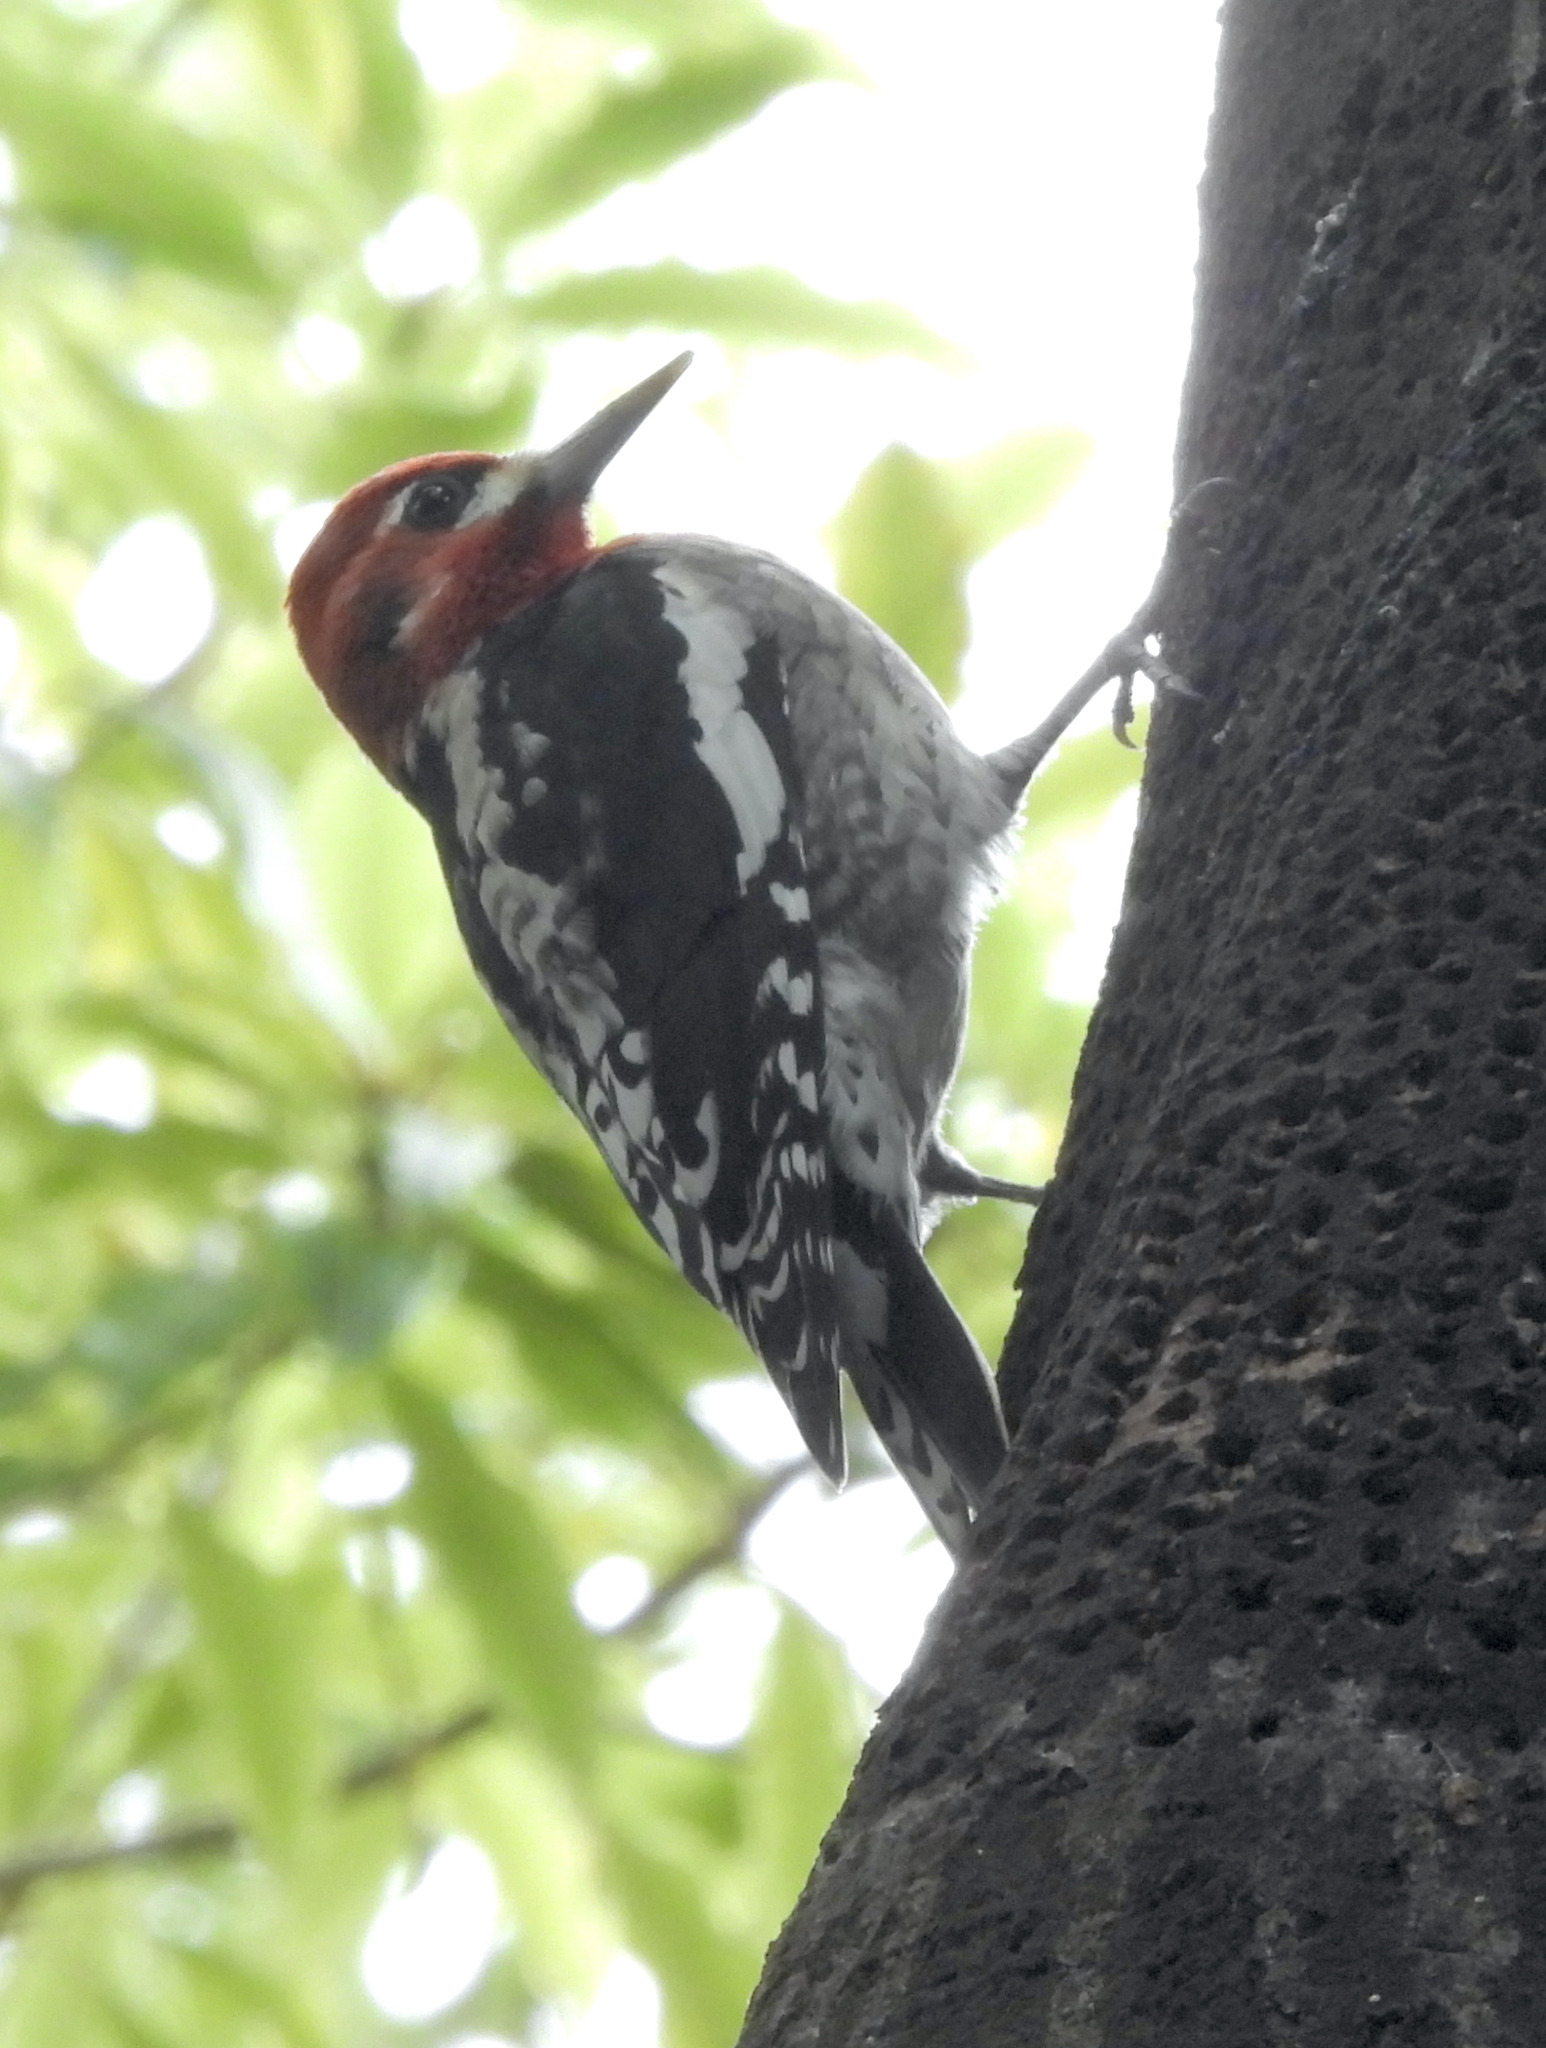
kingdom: Animalia
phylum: Chordata
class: Aves
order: Piciformes
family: Picidae
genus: Sphyrapicus
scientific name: Sphyrapicus ruber
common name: Red-breasted sapsucker
